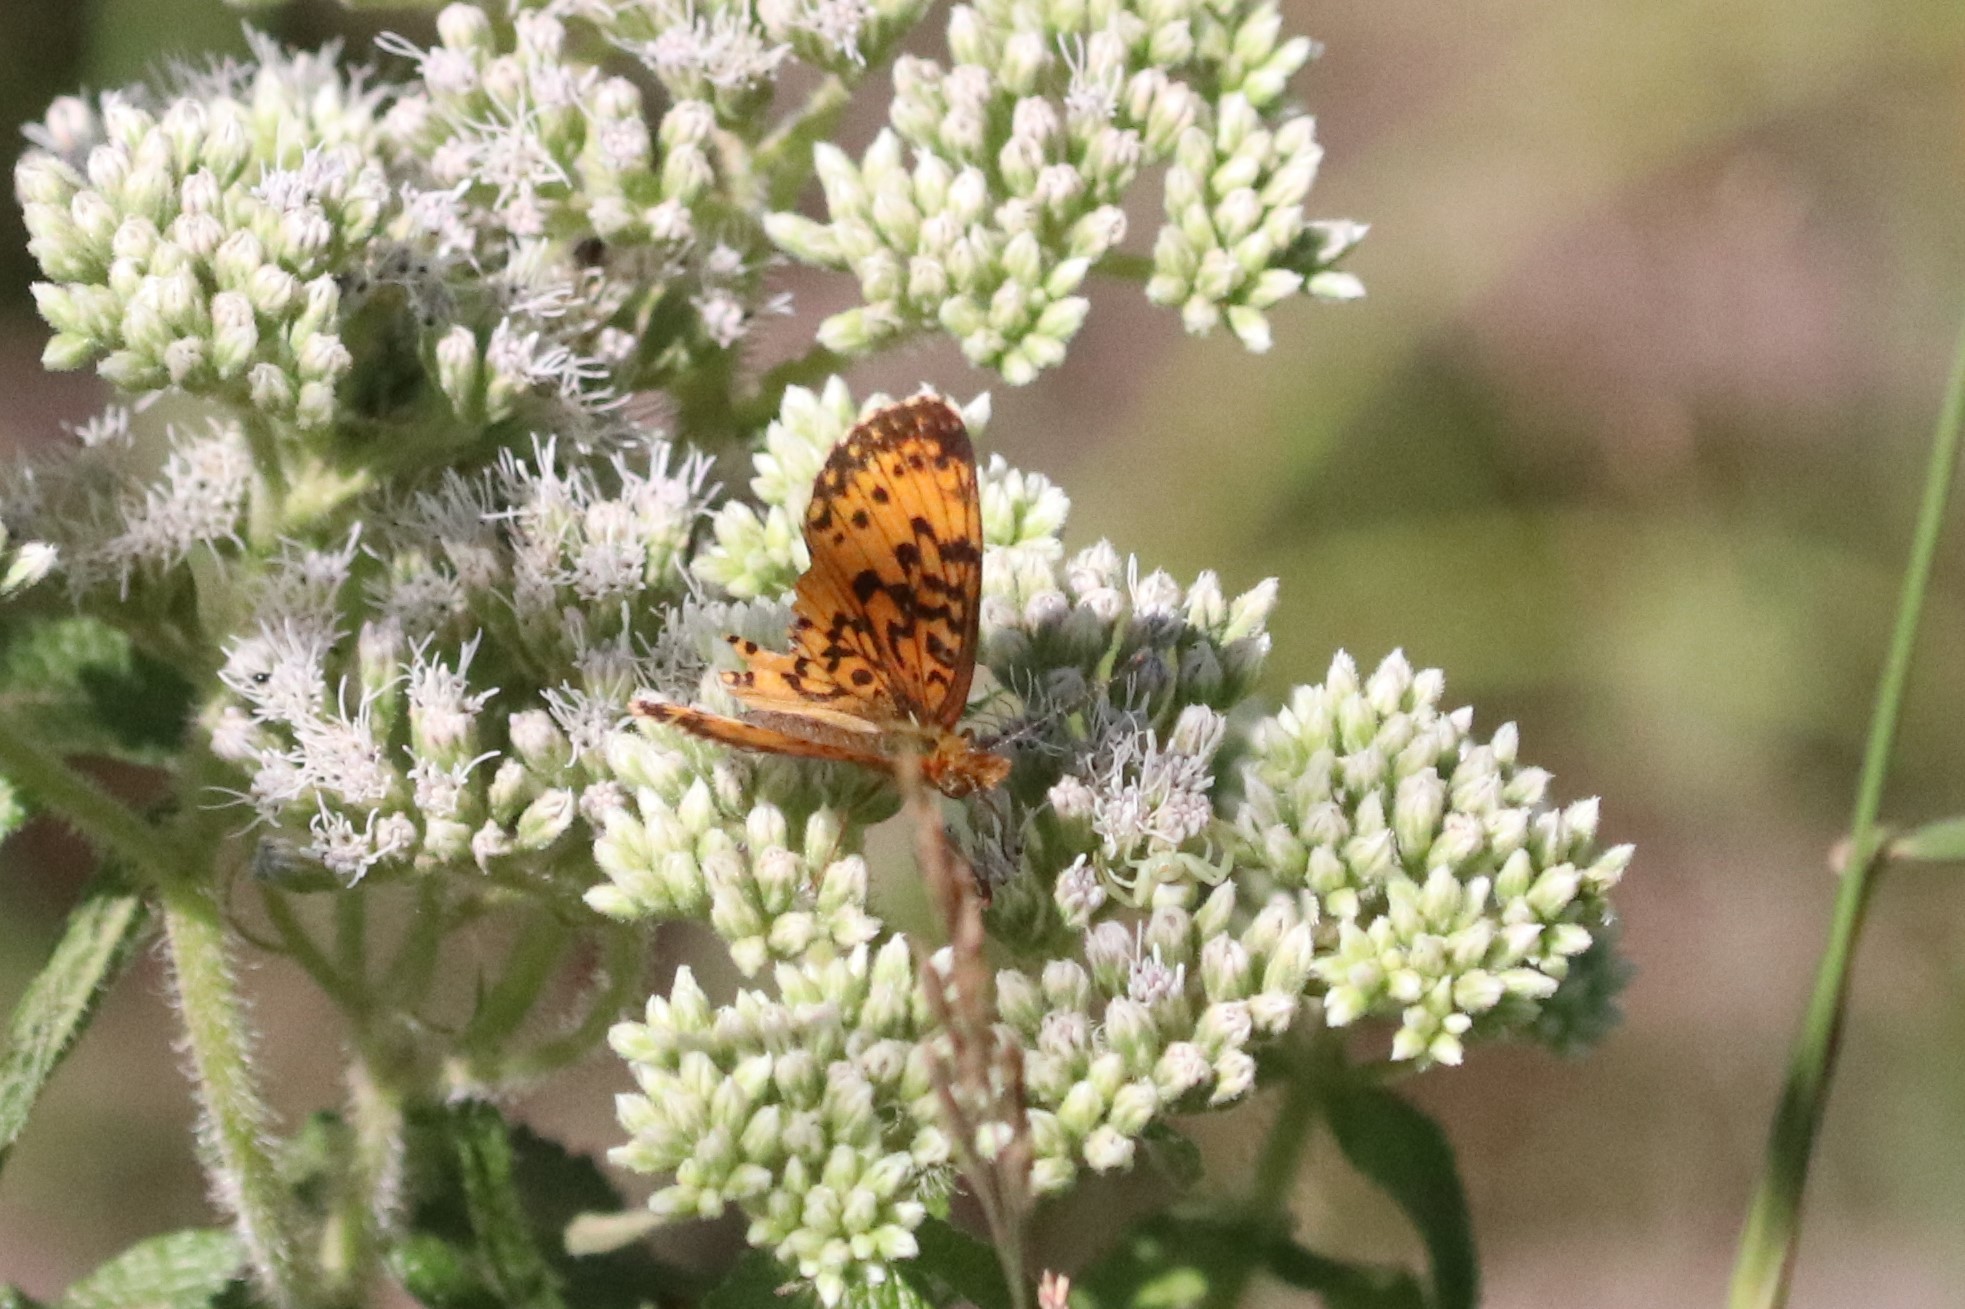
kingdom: Animalia
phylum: Arthropoda
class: Insecta
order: Lepidoptera
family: Nymphalidae
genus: Boloria
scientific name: Boloria
